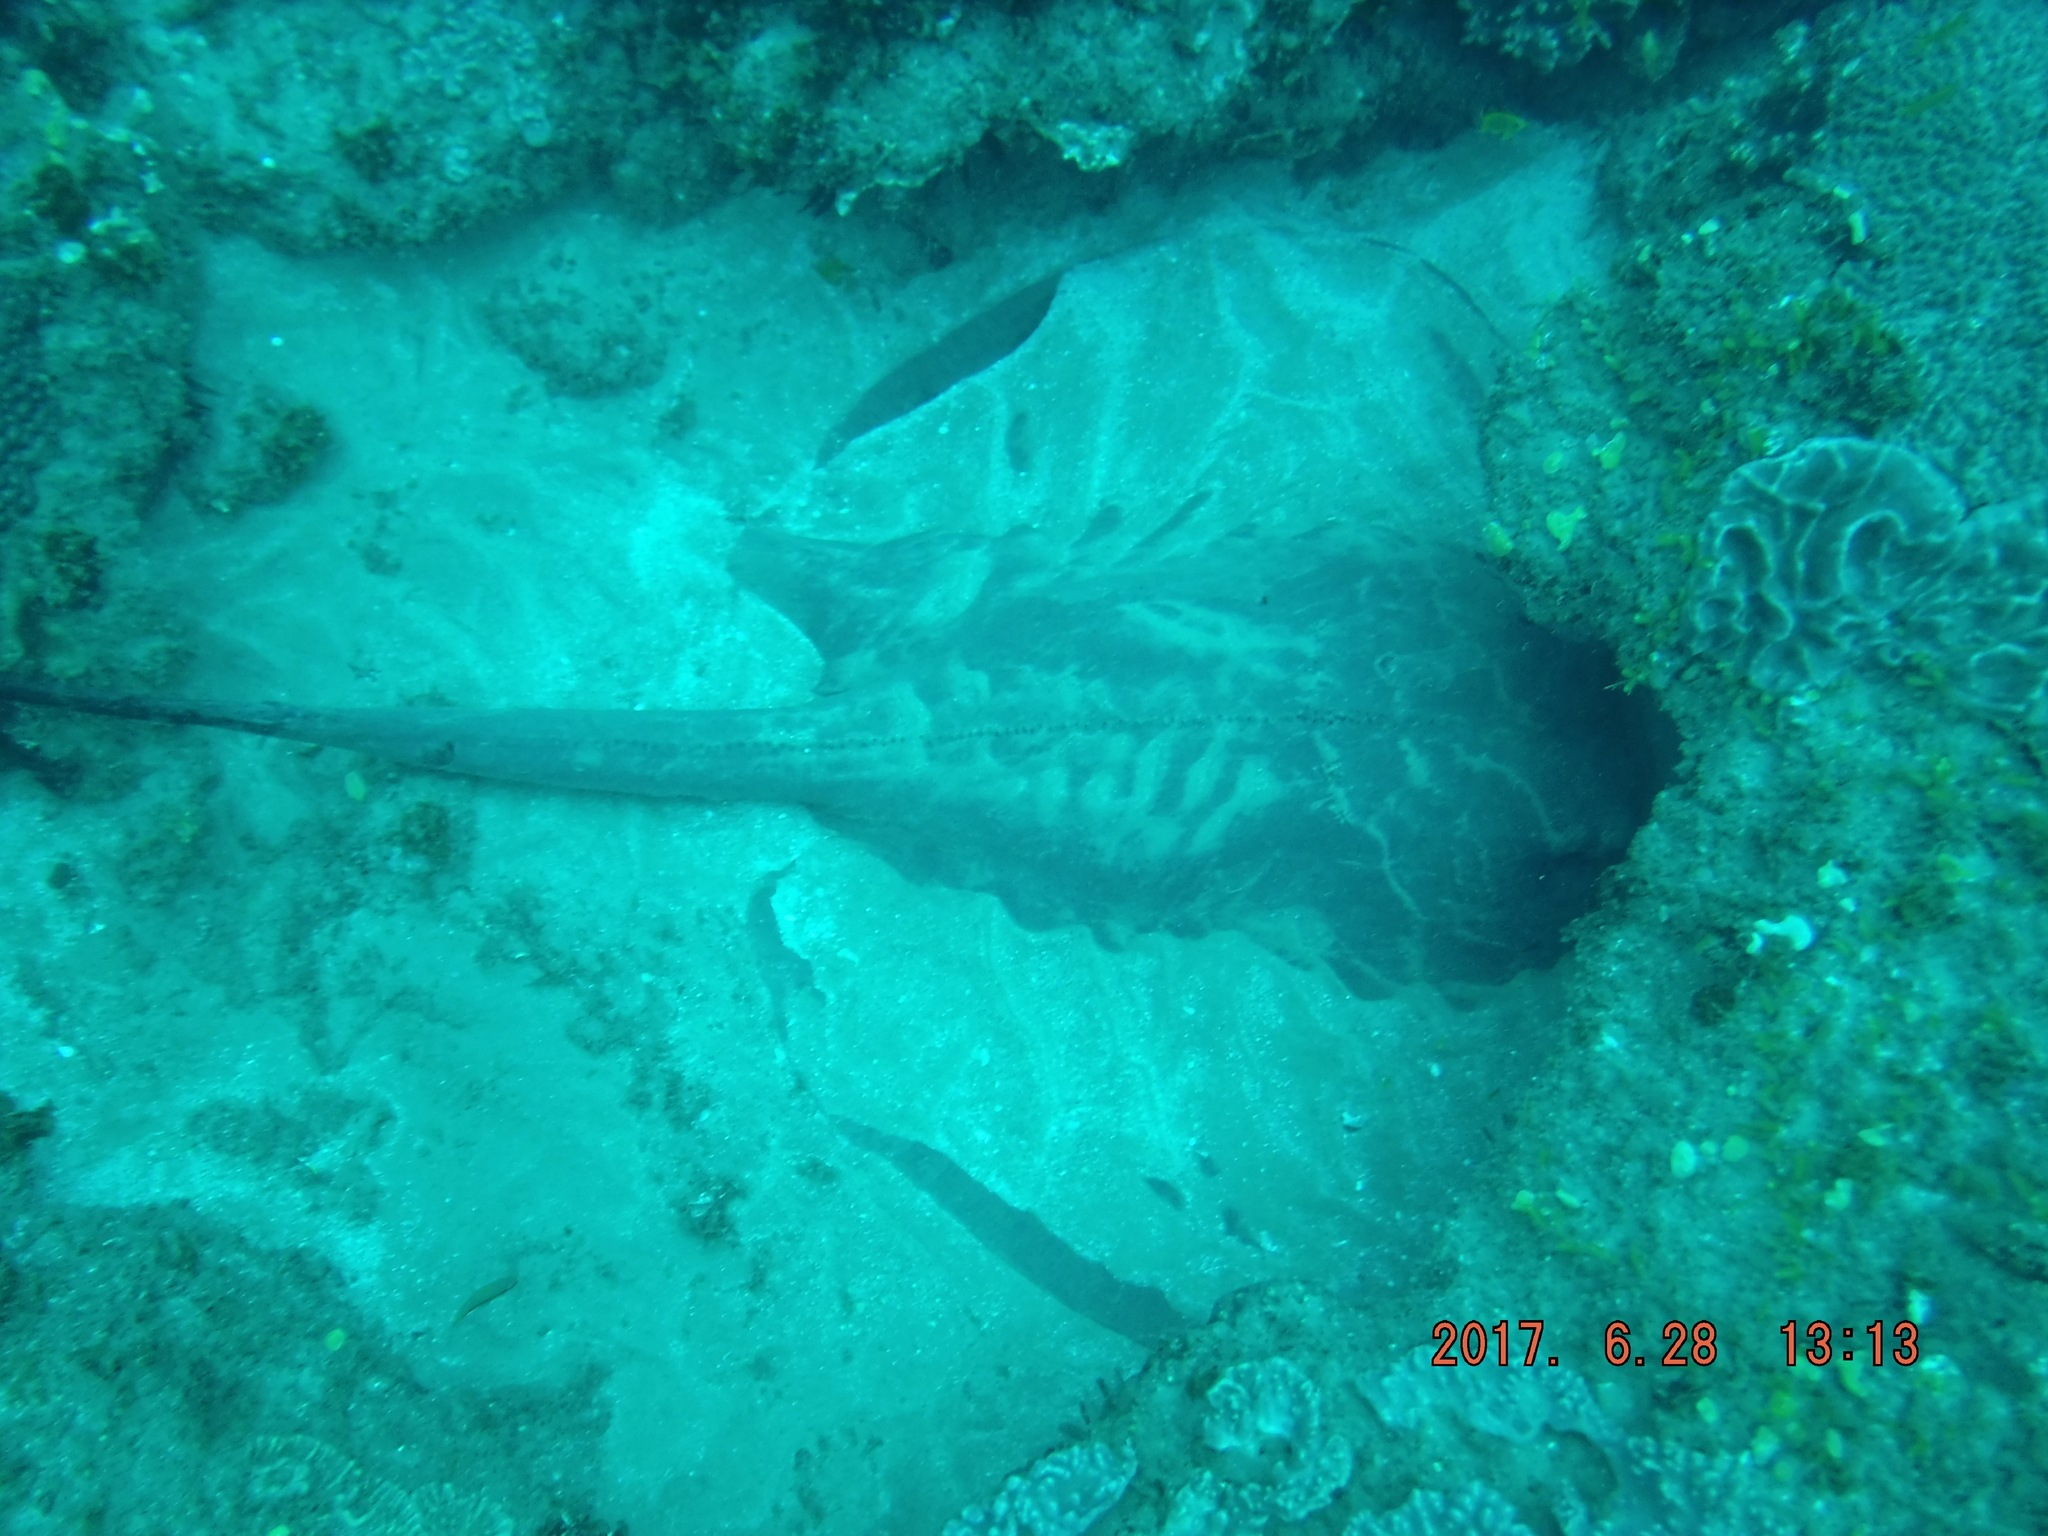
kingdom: Animalia
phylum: Chordata
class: Elasmobranchii
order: Myliobatiformes
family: Dasyatidae
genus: Pateobatis
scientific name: Pateobatis jenkinsii
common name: Jenkins whipray
